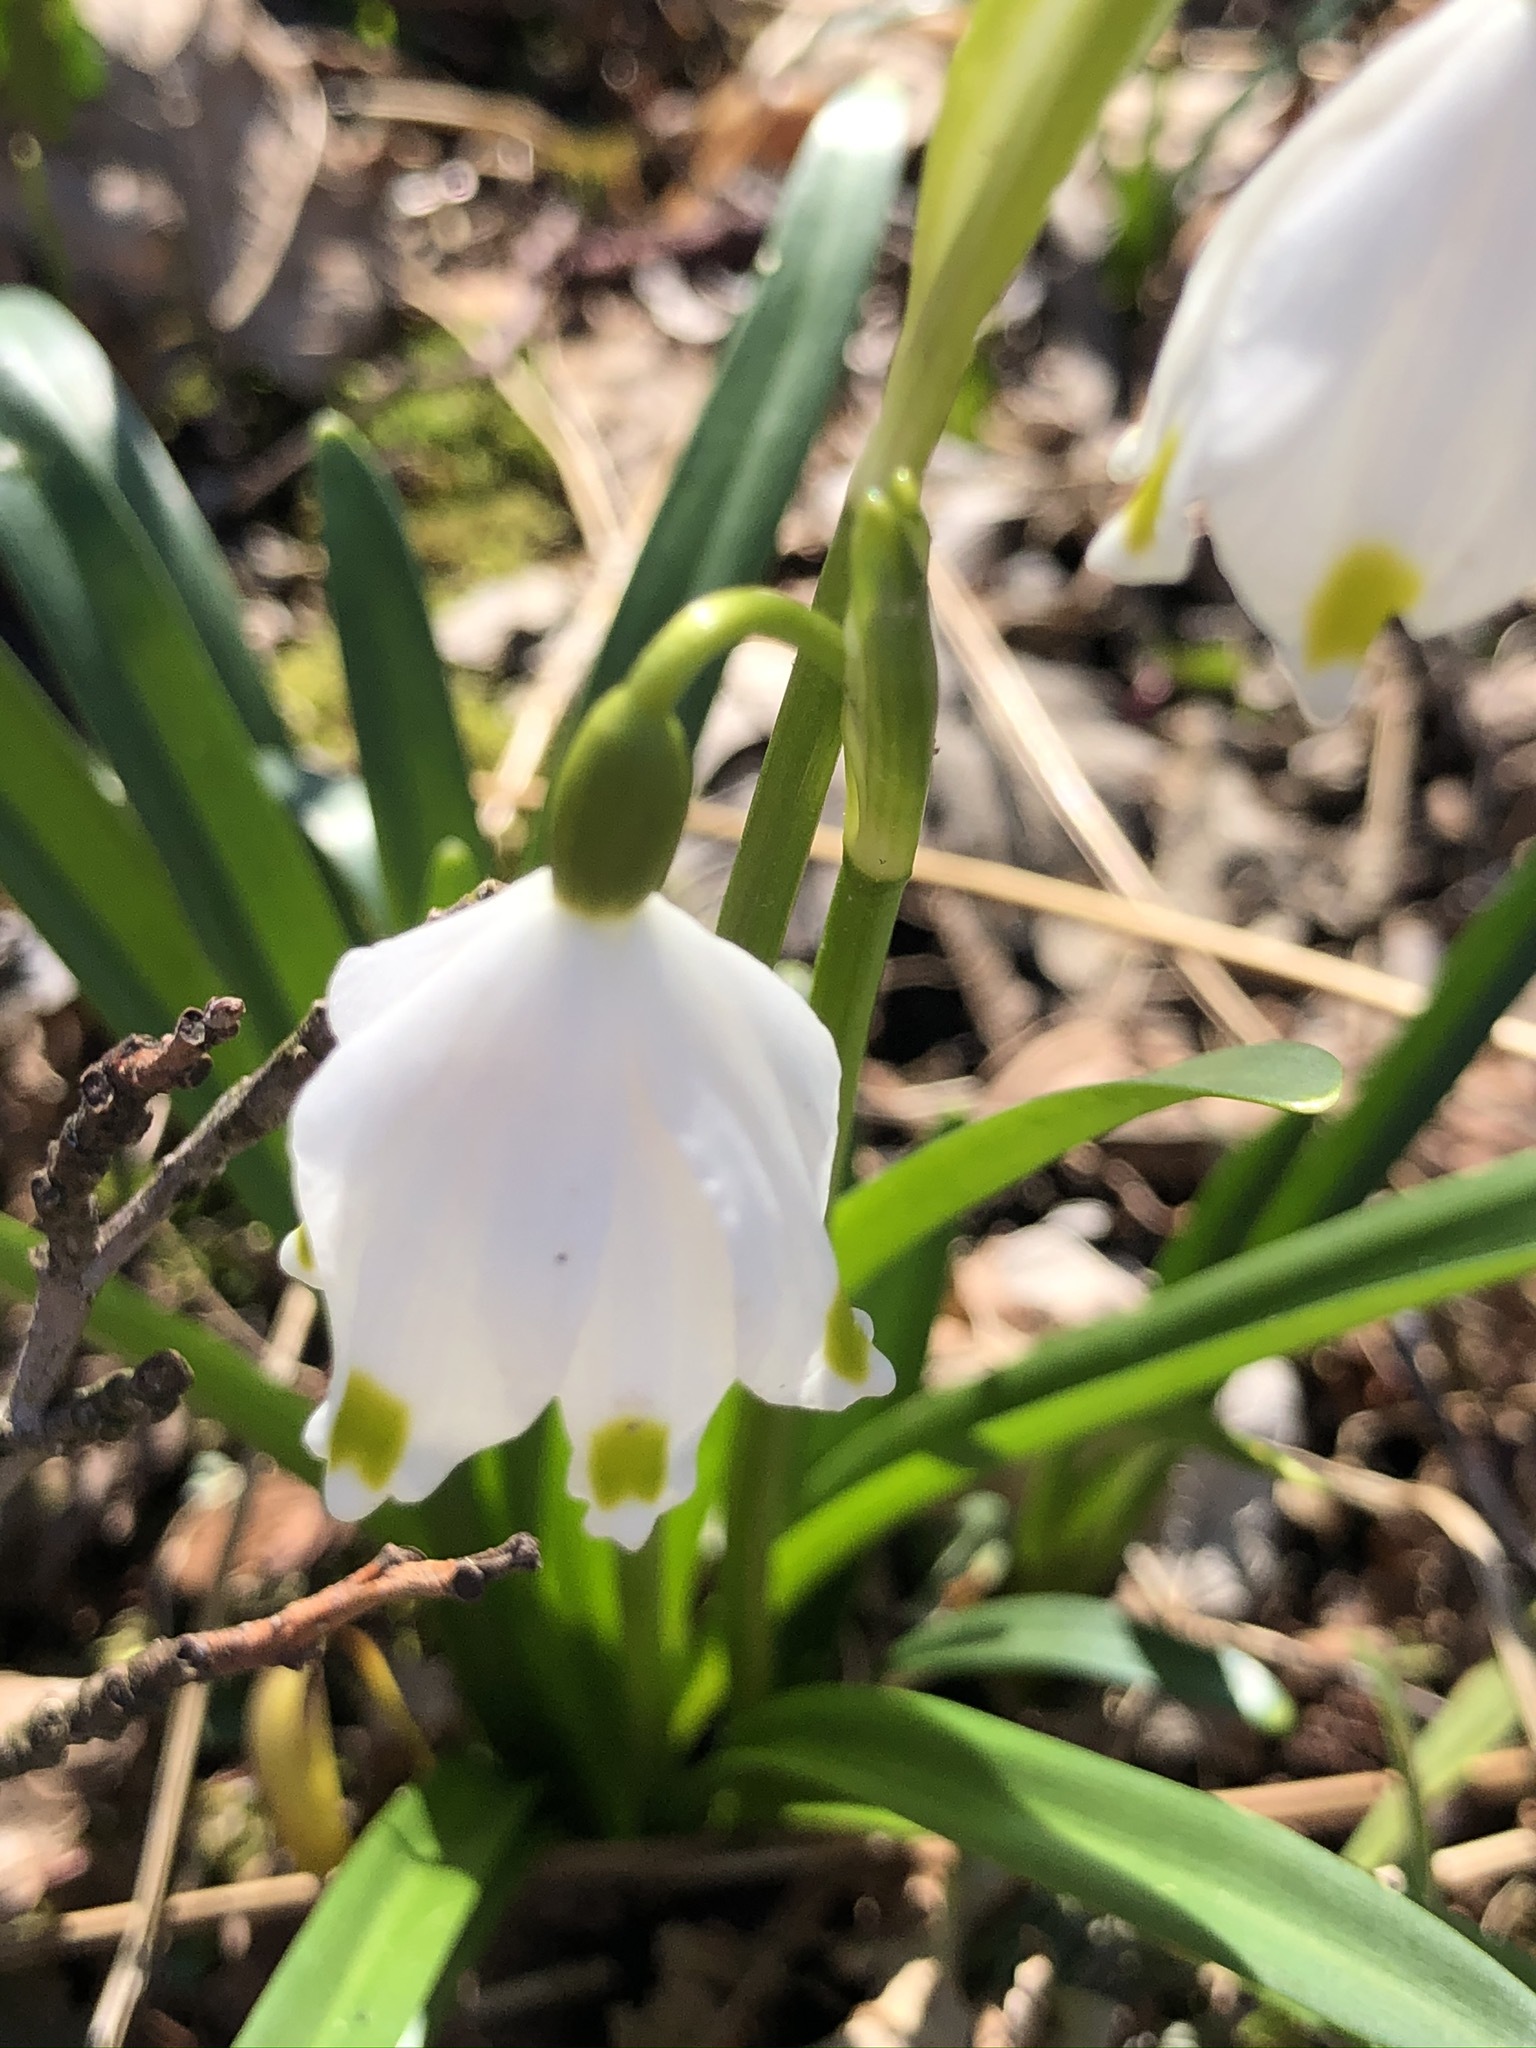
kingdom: Plantae
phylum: Tracheophyta
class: Liliopsida
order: Asparagales
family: Amaryllidaceae
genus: Leucojum
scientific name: Leucojum vernum
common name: Spring snowflake
